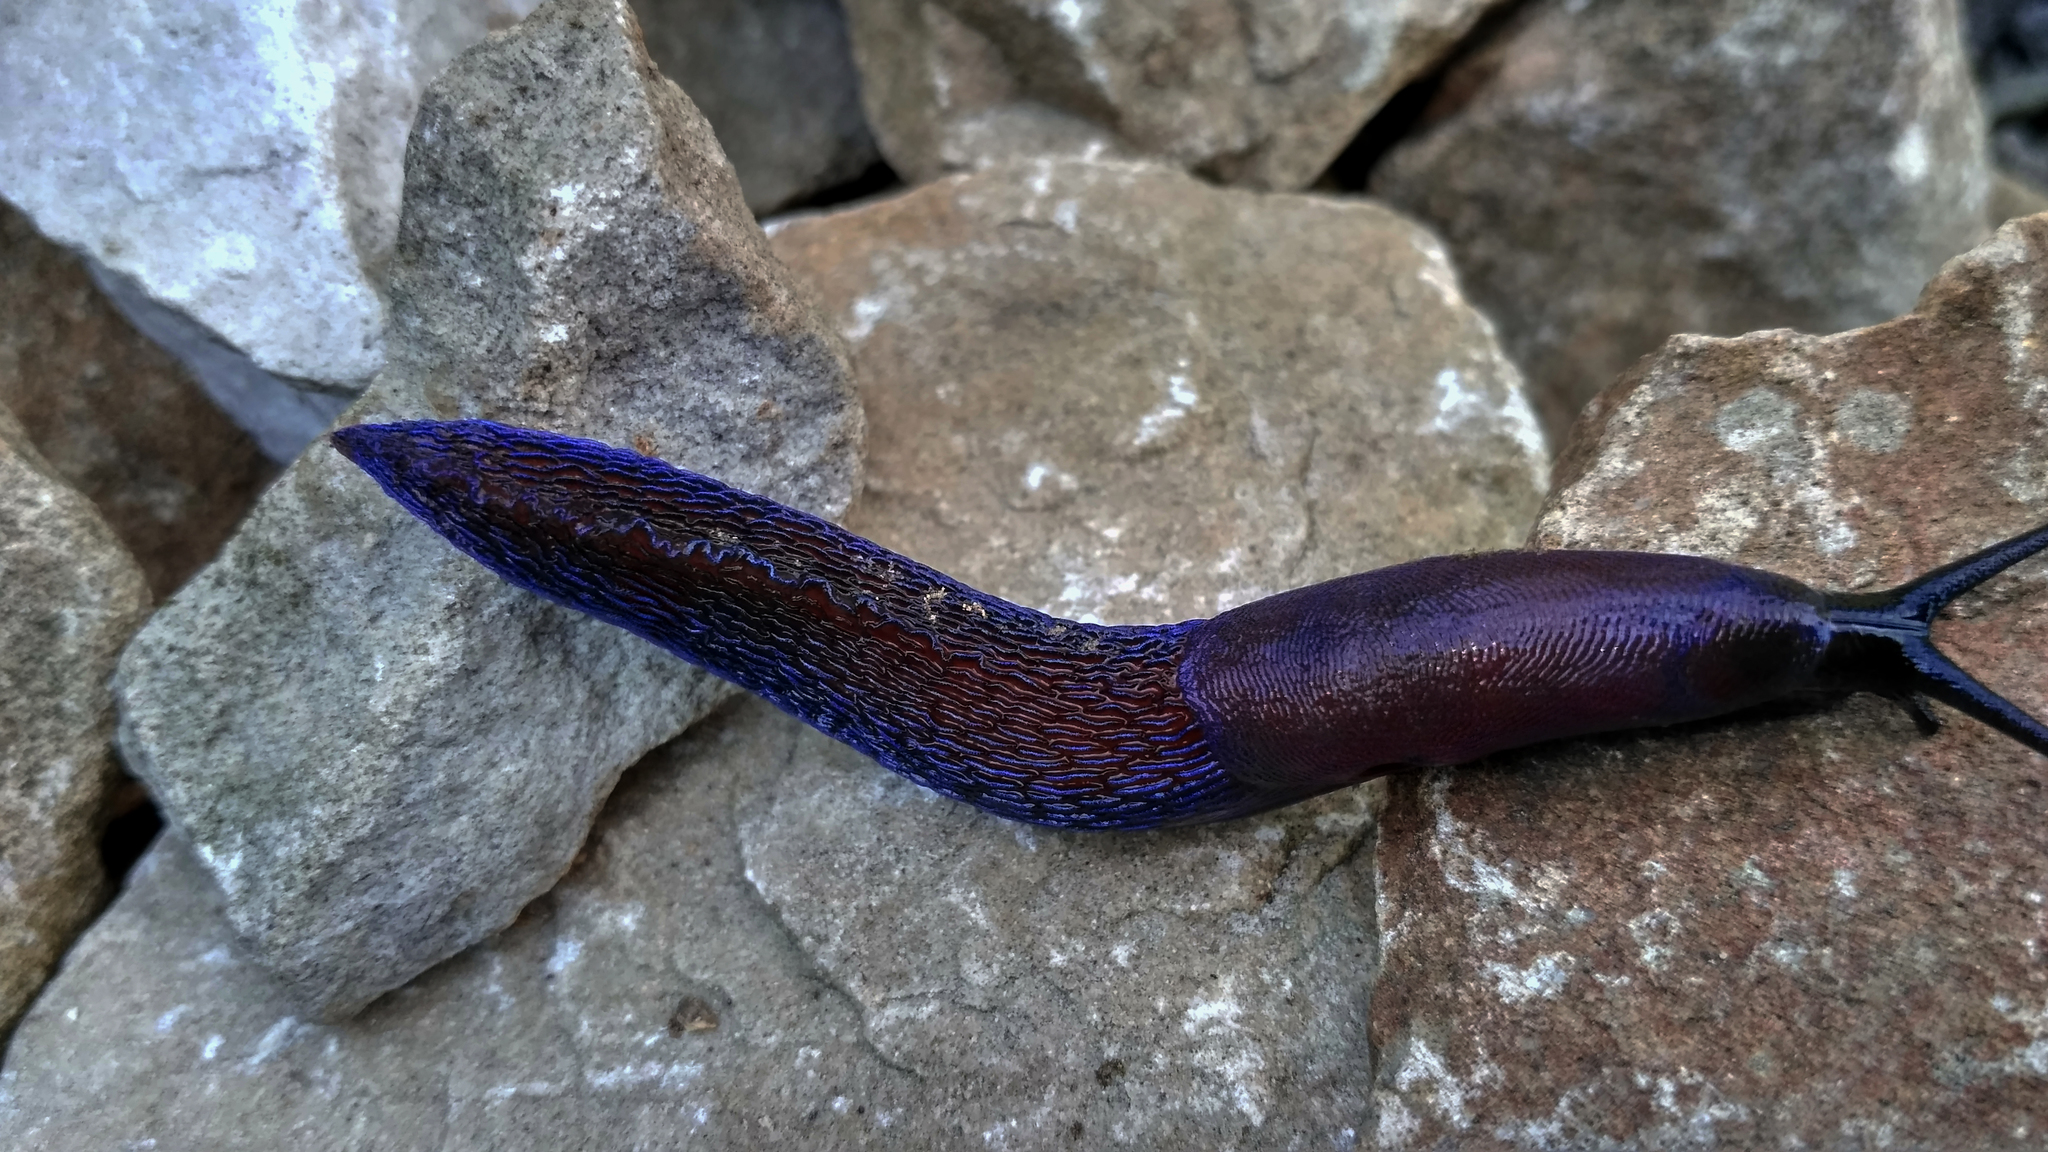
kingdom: Animalia
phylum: Mollusca
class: Gastropoda
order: Stylommatophora
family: Limacidae
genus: Bielzia
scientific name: Bielzia coerulans
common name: Carpathian blue slug
